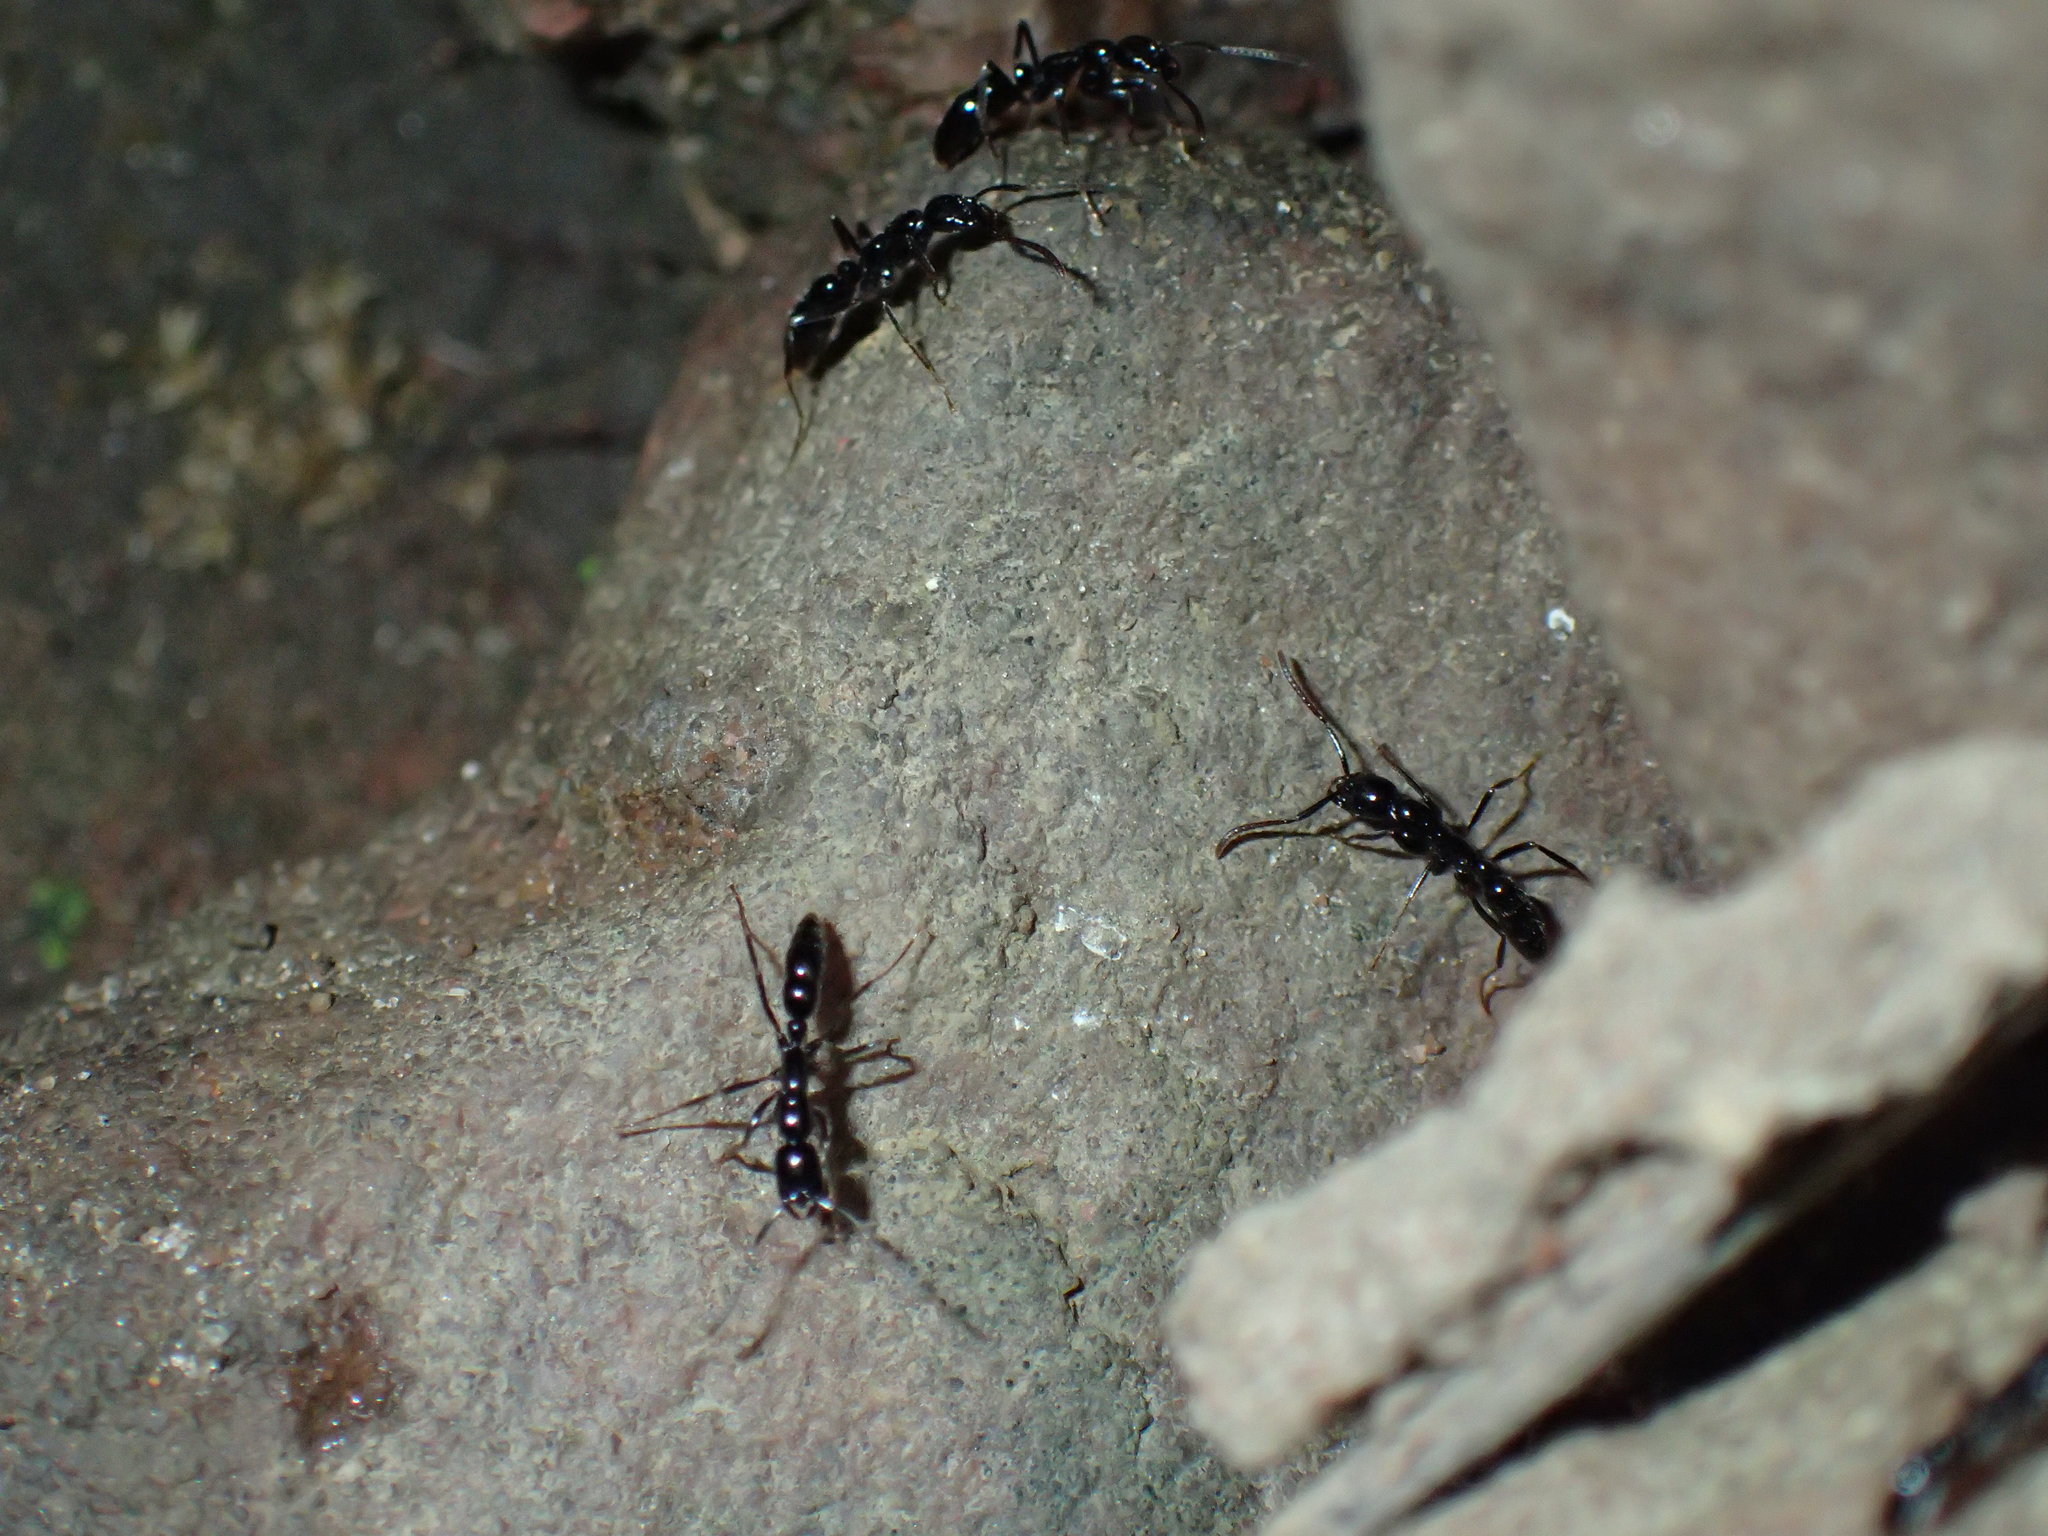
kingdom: Animalia
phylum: Arthropoda
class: Insecta
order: Hymenoptera
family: Formicidae
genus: Leptogenys
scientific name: Leptogenys intermedia
